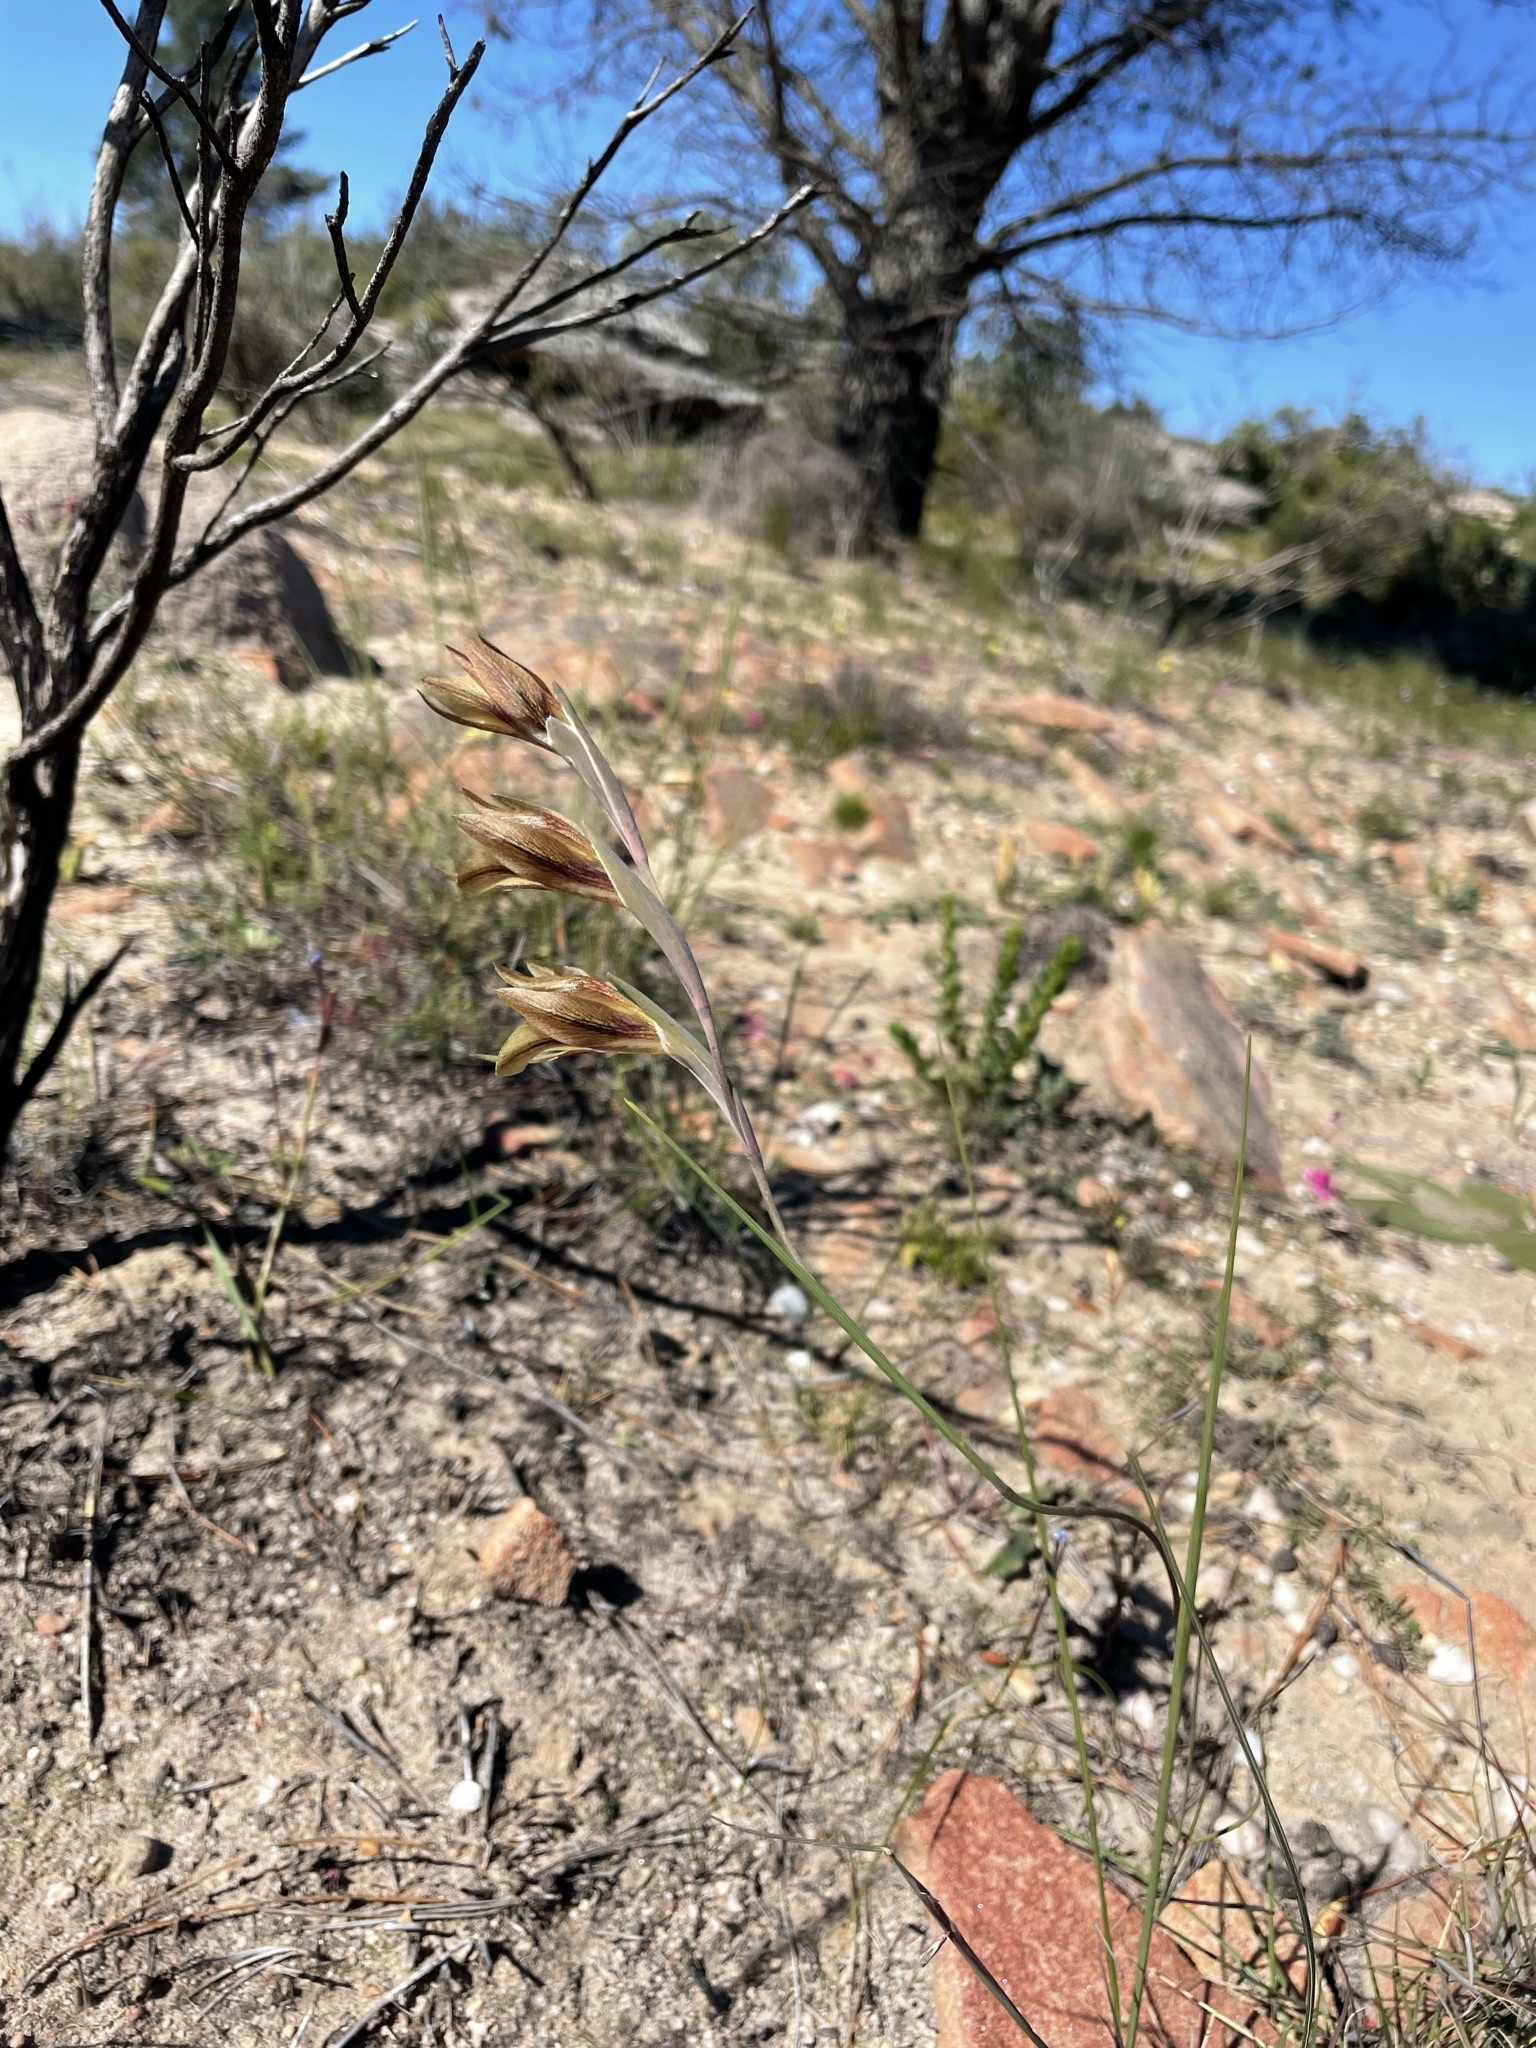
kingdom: Plantae
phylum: Tracheophyta
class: Liliopsida
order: Asparagales
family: Iridaceae
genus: Gladiolus
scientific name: Gladiolus hyalinus
